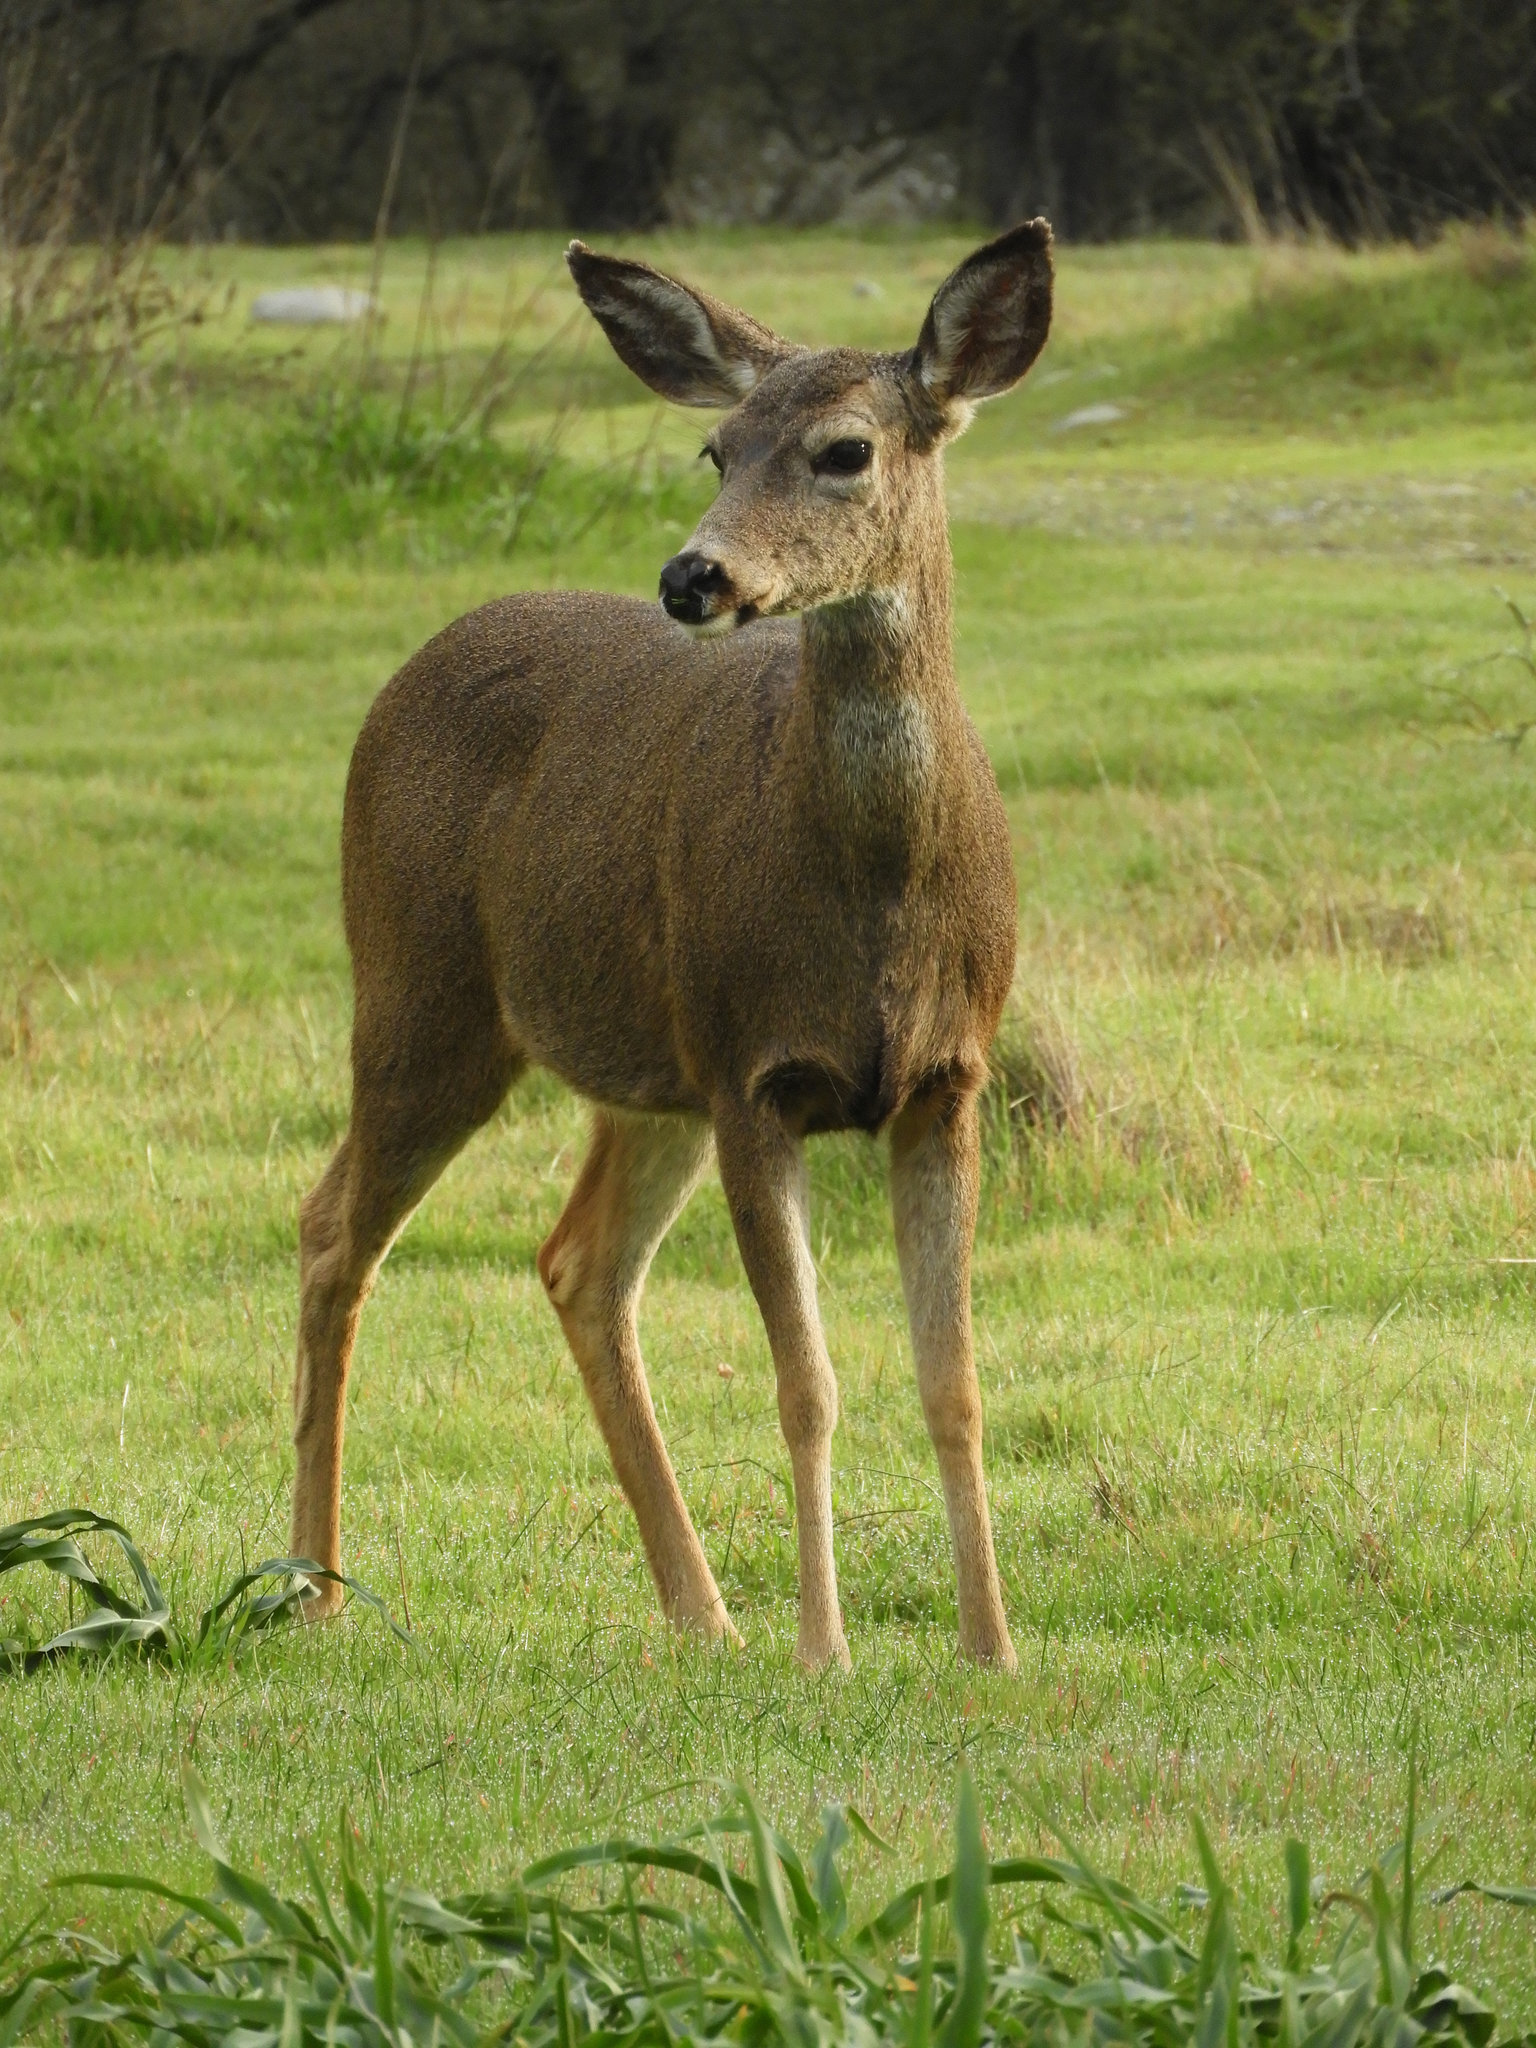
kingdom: Animalia
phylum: Chordata
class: Mammalia
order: Artiodactyla
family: Cervidae
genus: Odocoileus
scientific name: Odocoileus hemionus
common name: Mule deer
